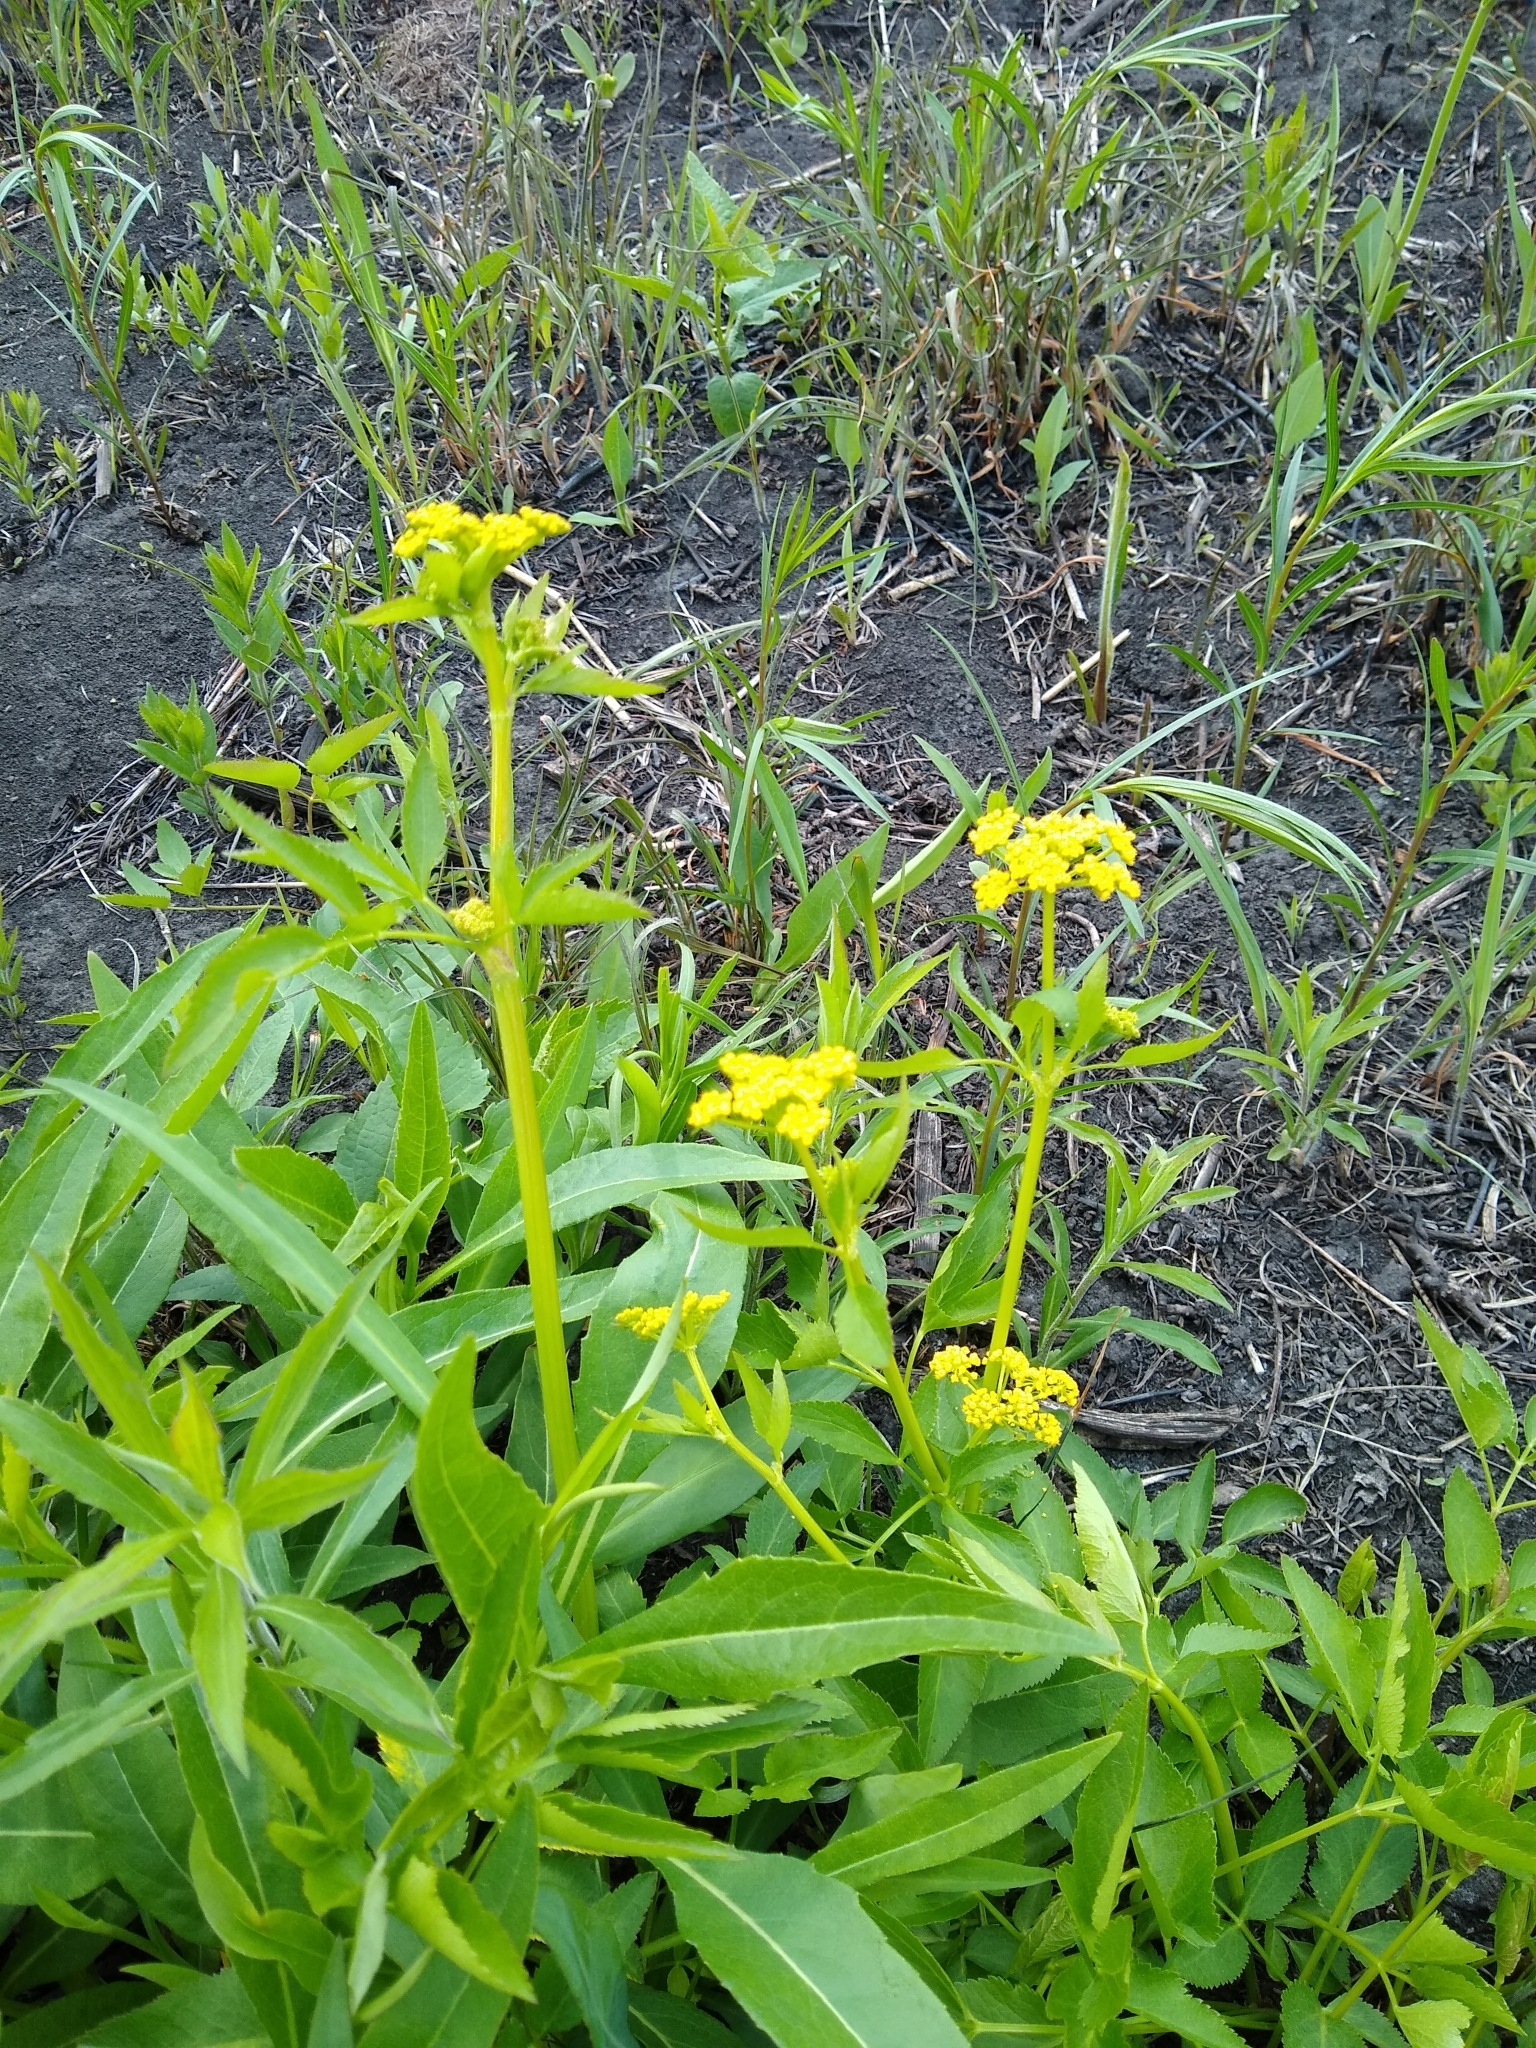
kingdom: Plantae
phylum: Tracheophyta
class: Magnoliopsida
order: Apiales
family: Apiaceae
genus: Zizia
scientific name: Zizia aurea
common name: Golden alexanders
